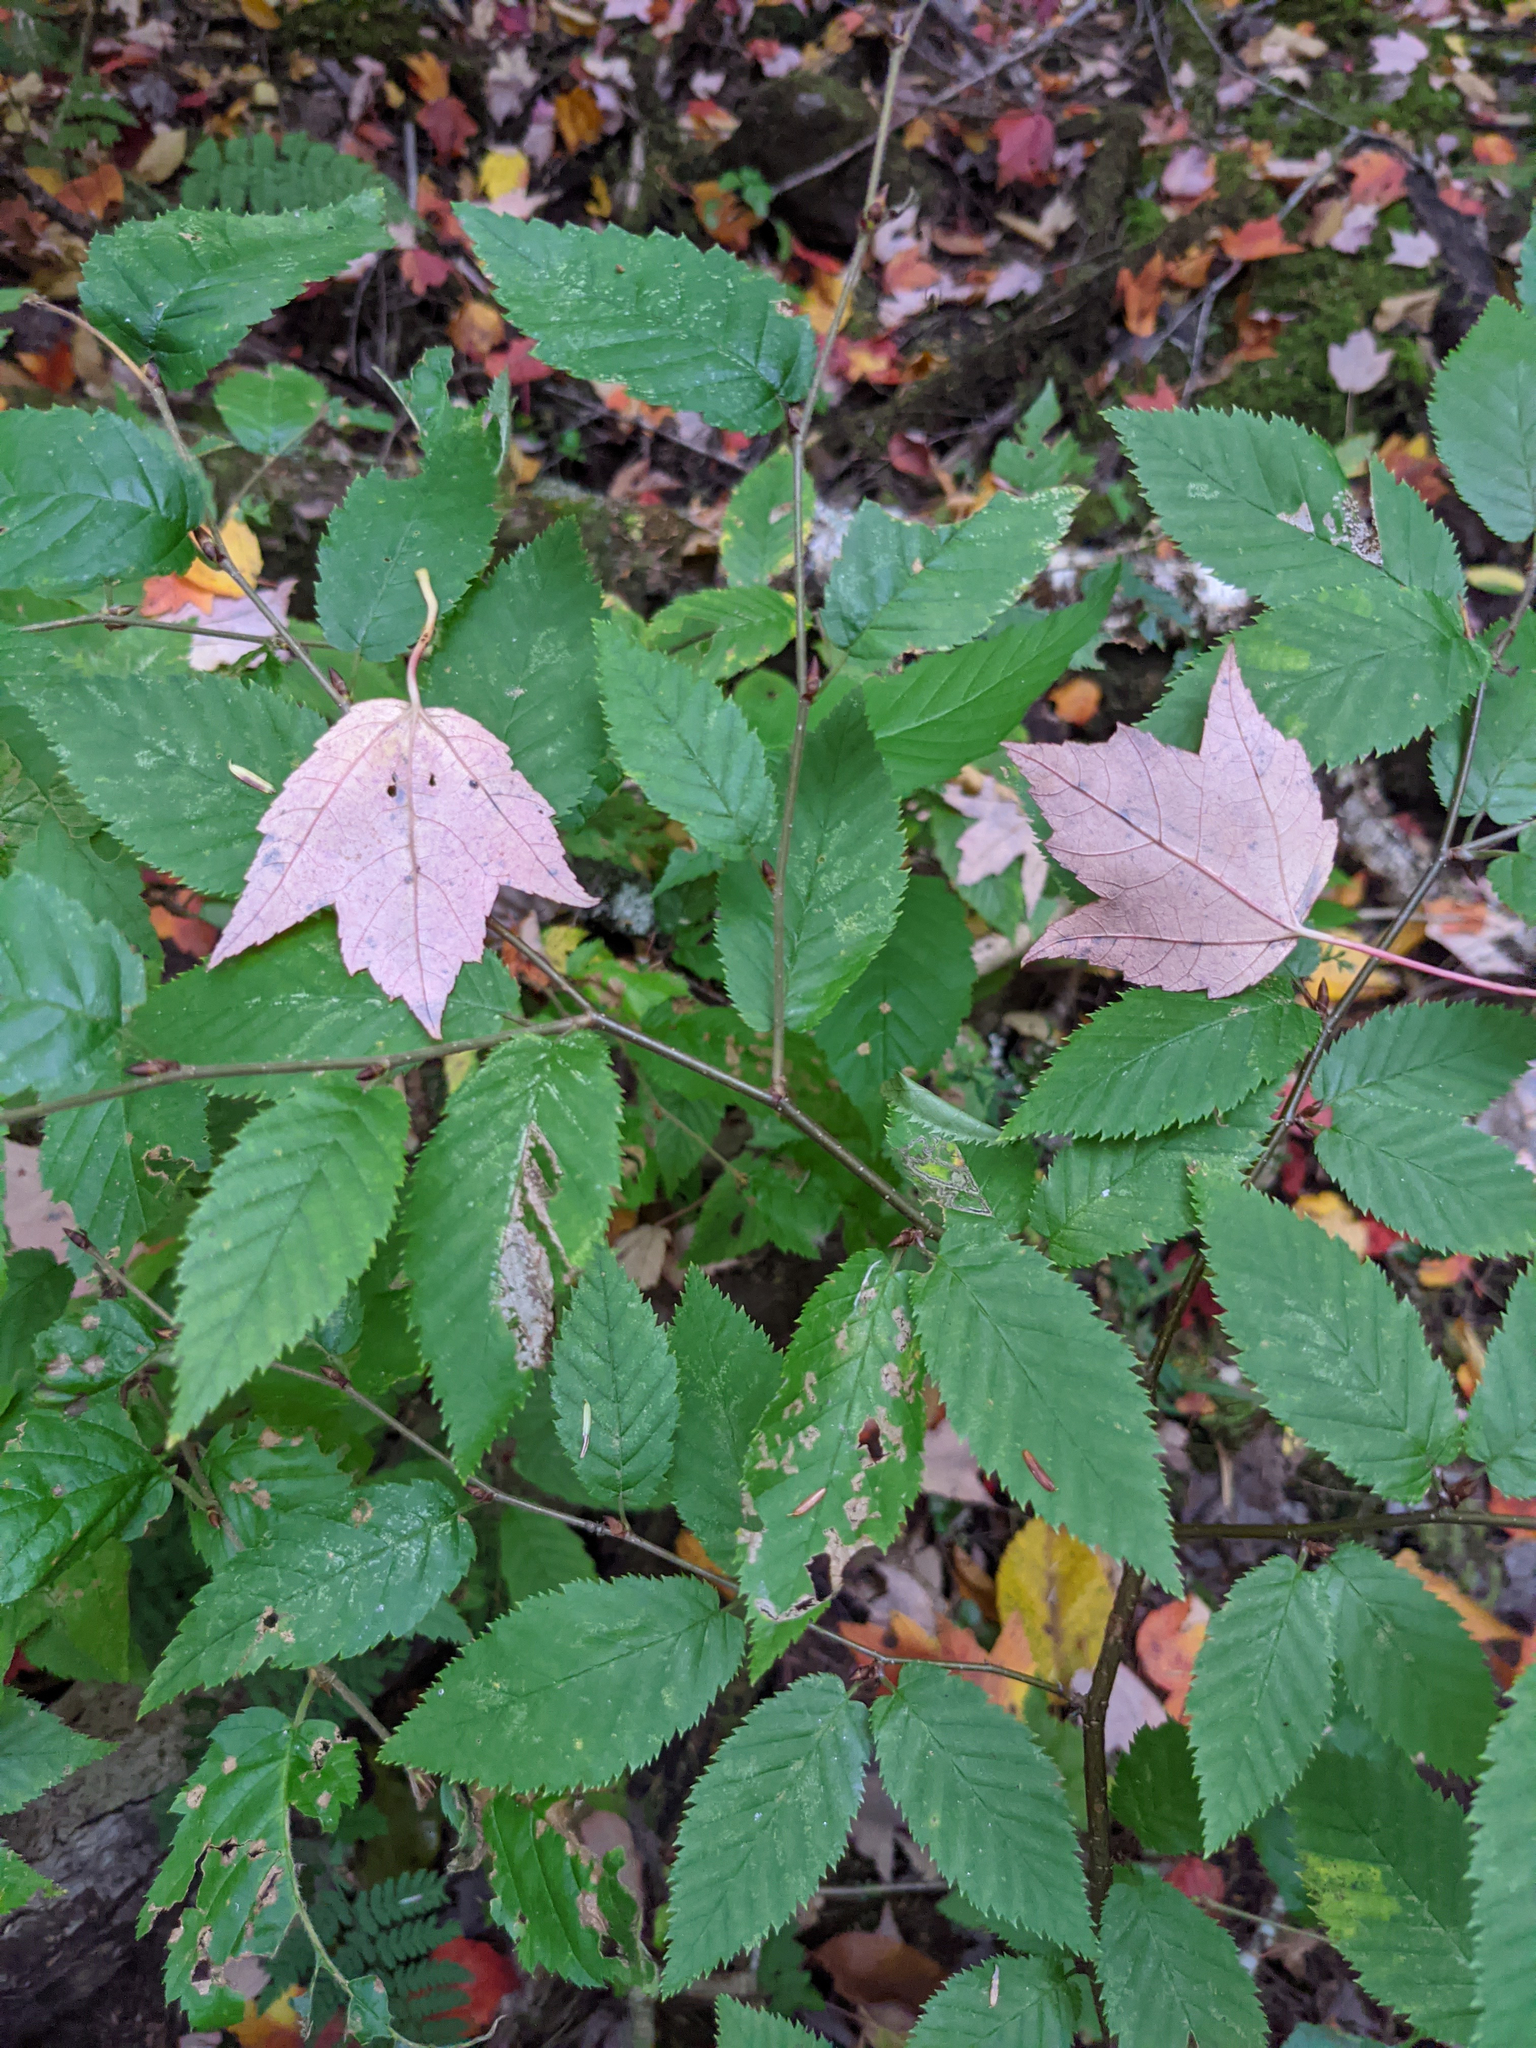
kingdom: Plantae
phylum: Tracheophyta
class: Magnoliopsida
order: Sapindales
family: Sapindaceae
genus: Acer
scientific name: Acer rubrum
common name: Red maple
